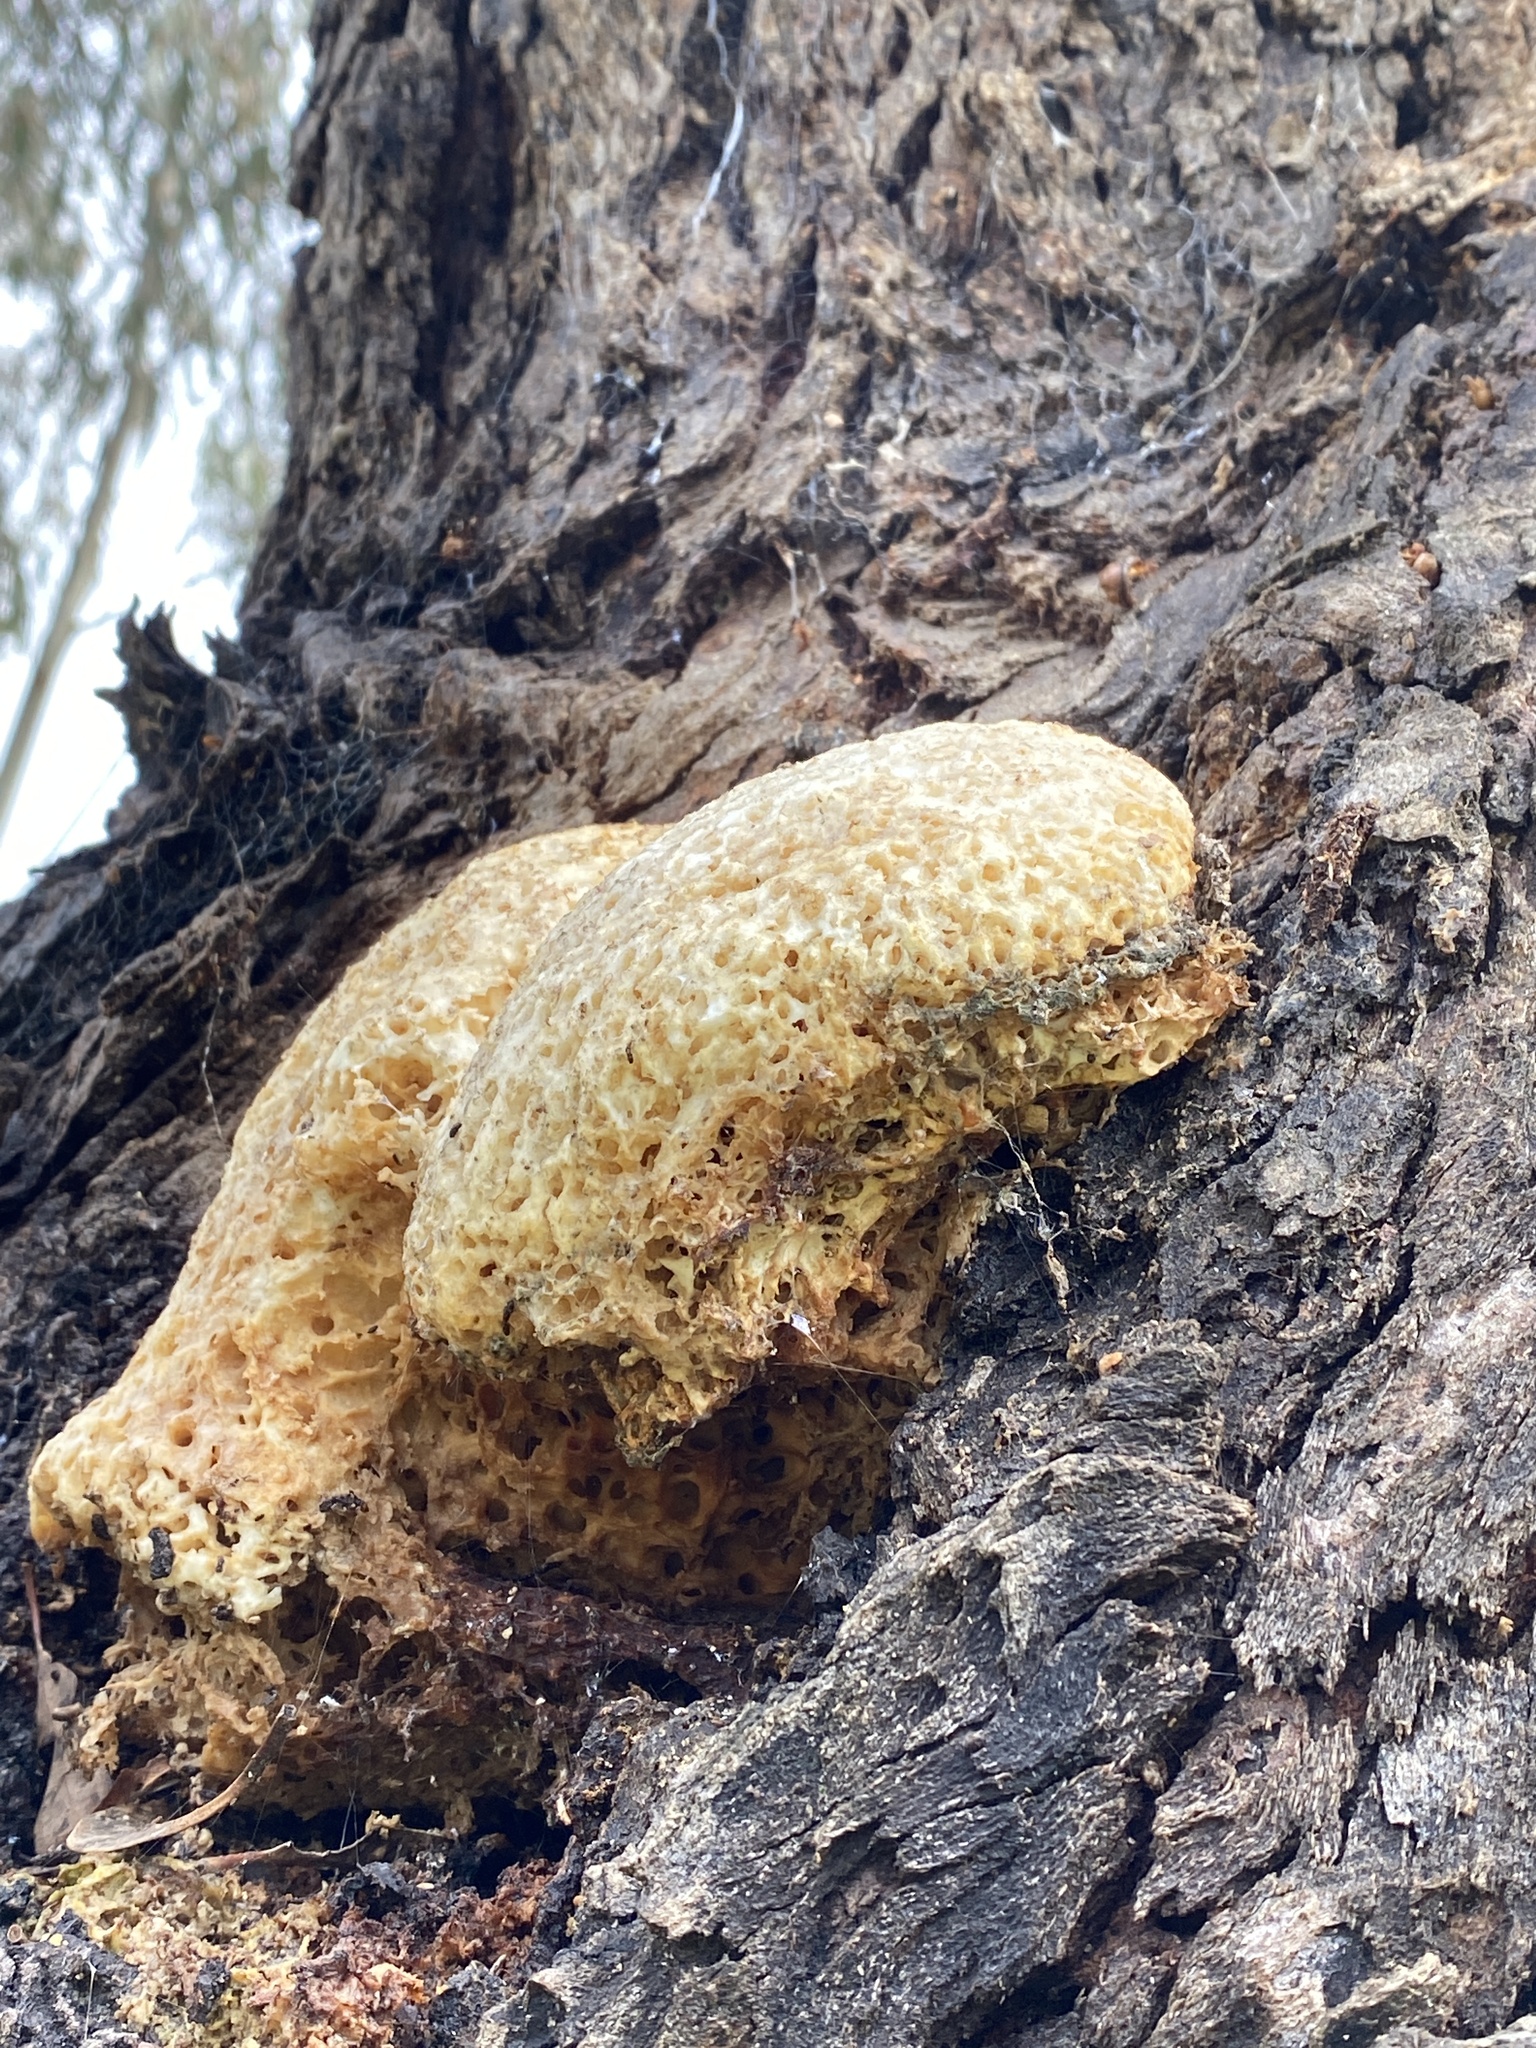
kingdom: Fungi
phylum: Basidiomycota
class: Agaricomycetes
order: Polyporales
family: Laetiporaceae
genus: Laetiporus
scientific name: Laetiporus portentosus
